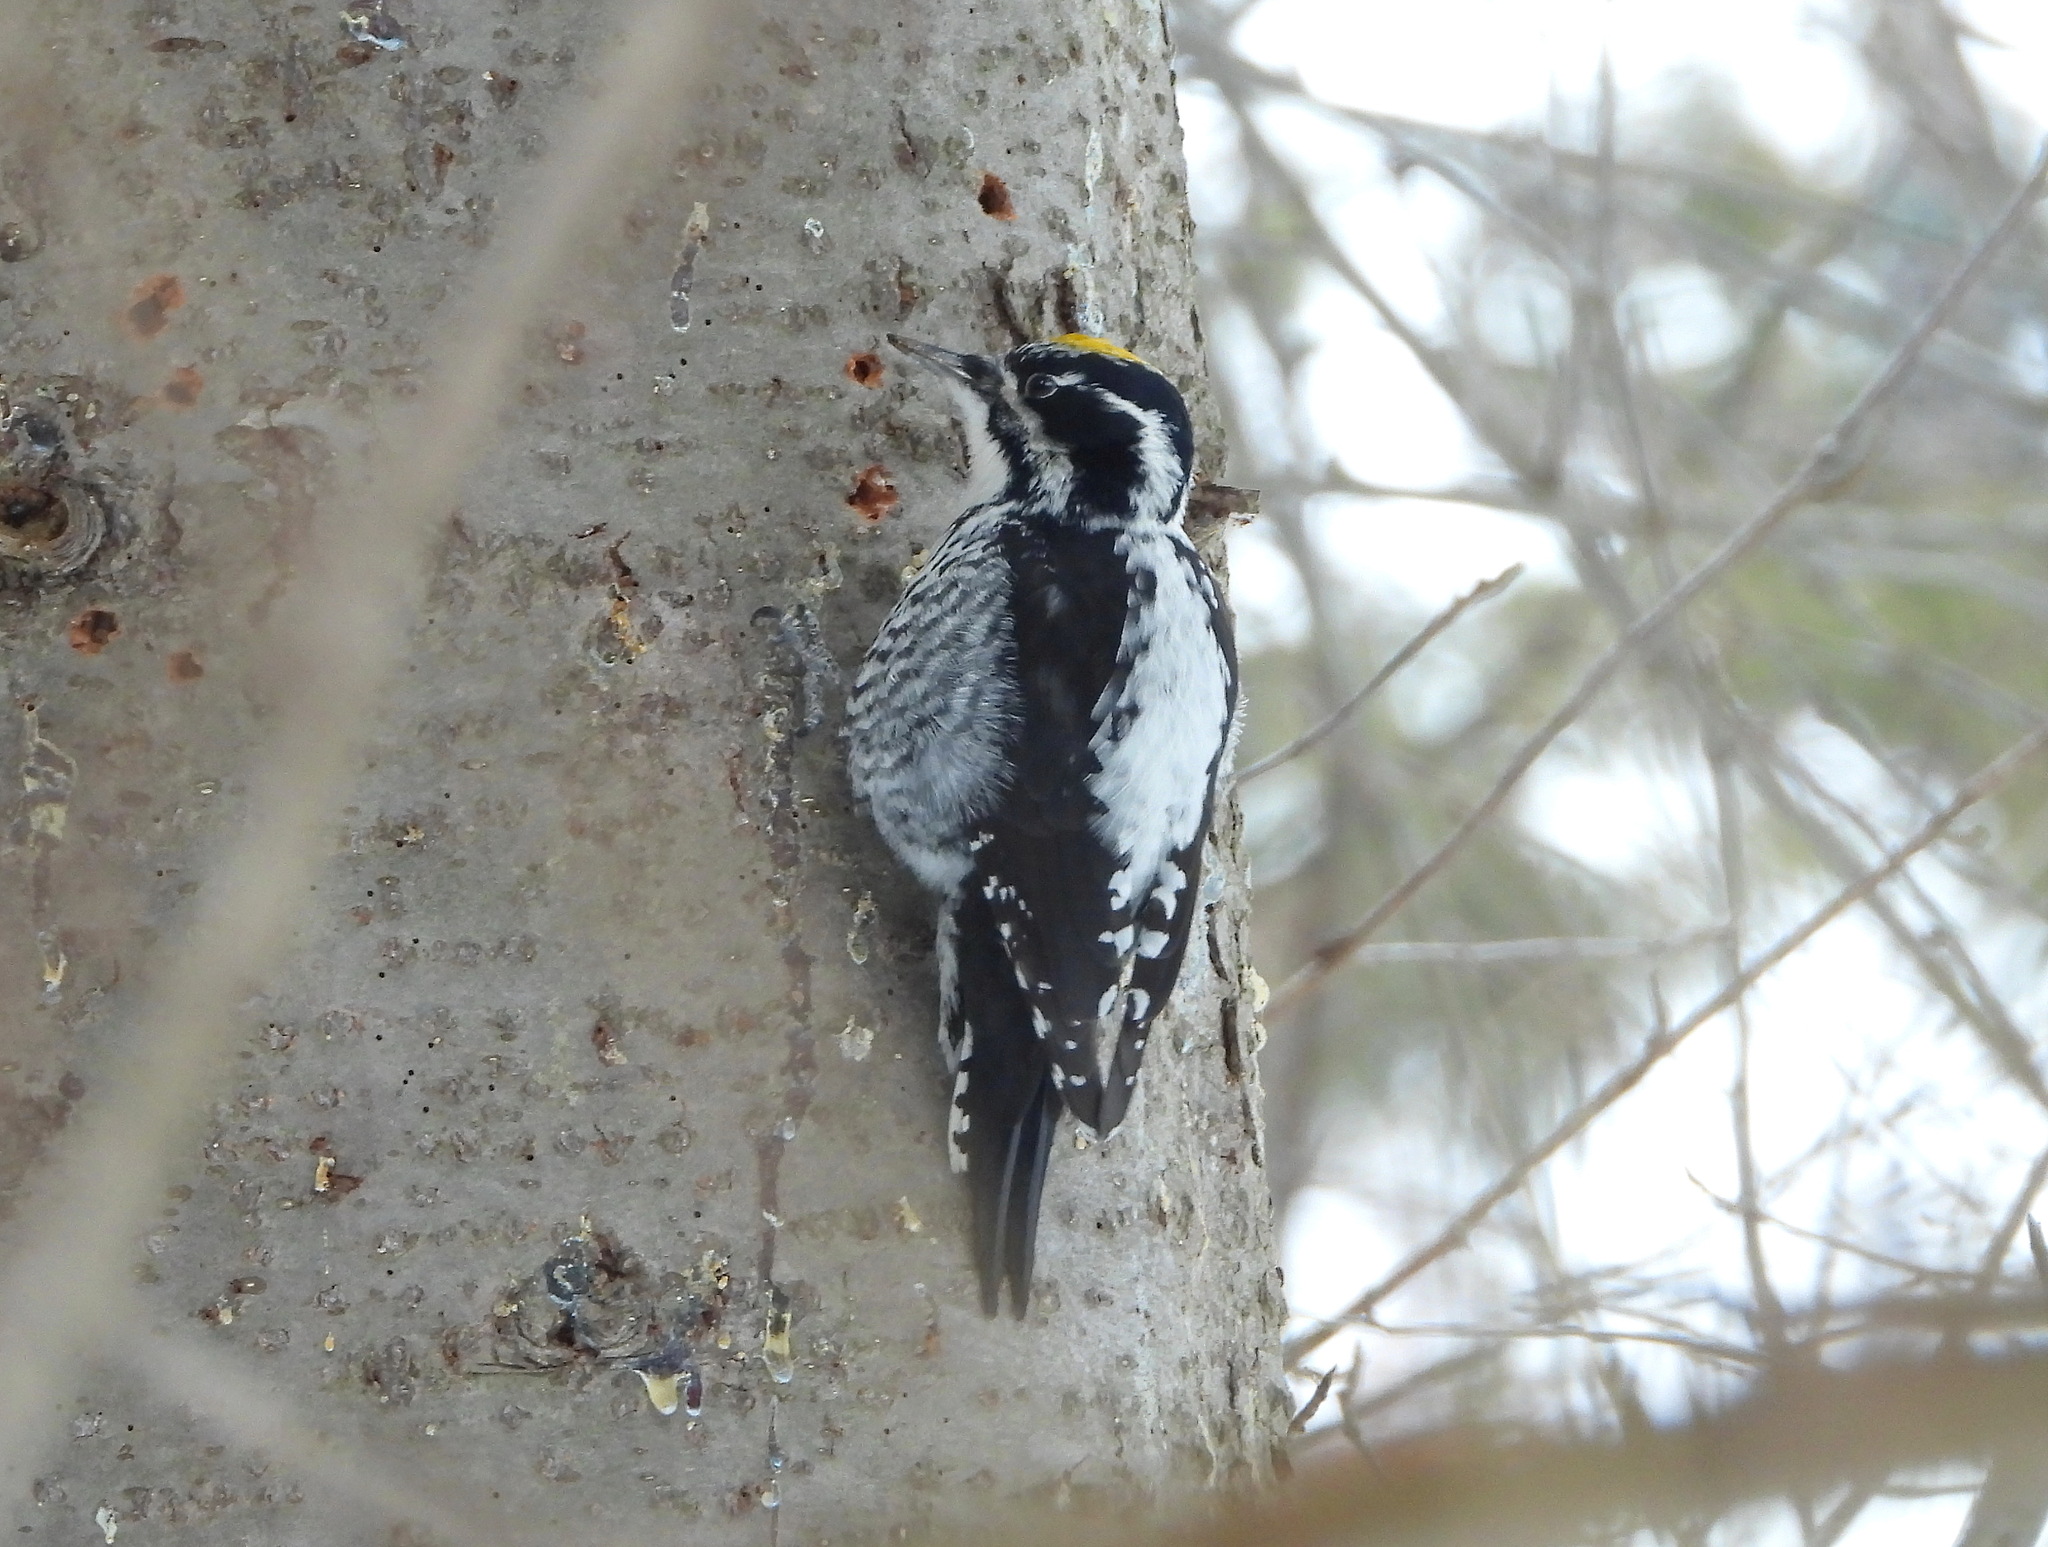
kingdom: Animalia
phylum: Chordata
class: Aves
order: Piciformes
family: Picidae
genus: Picoides
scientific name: Picoides tridactylus
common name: Eurasian three-toed woodpecker
